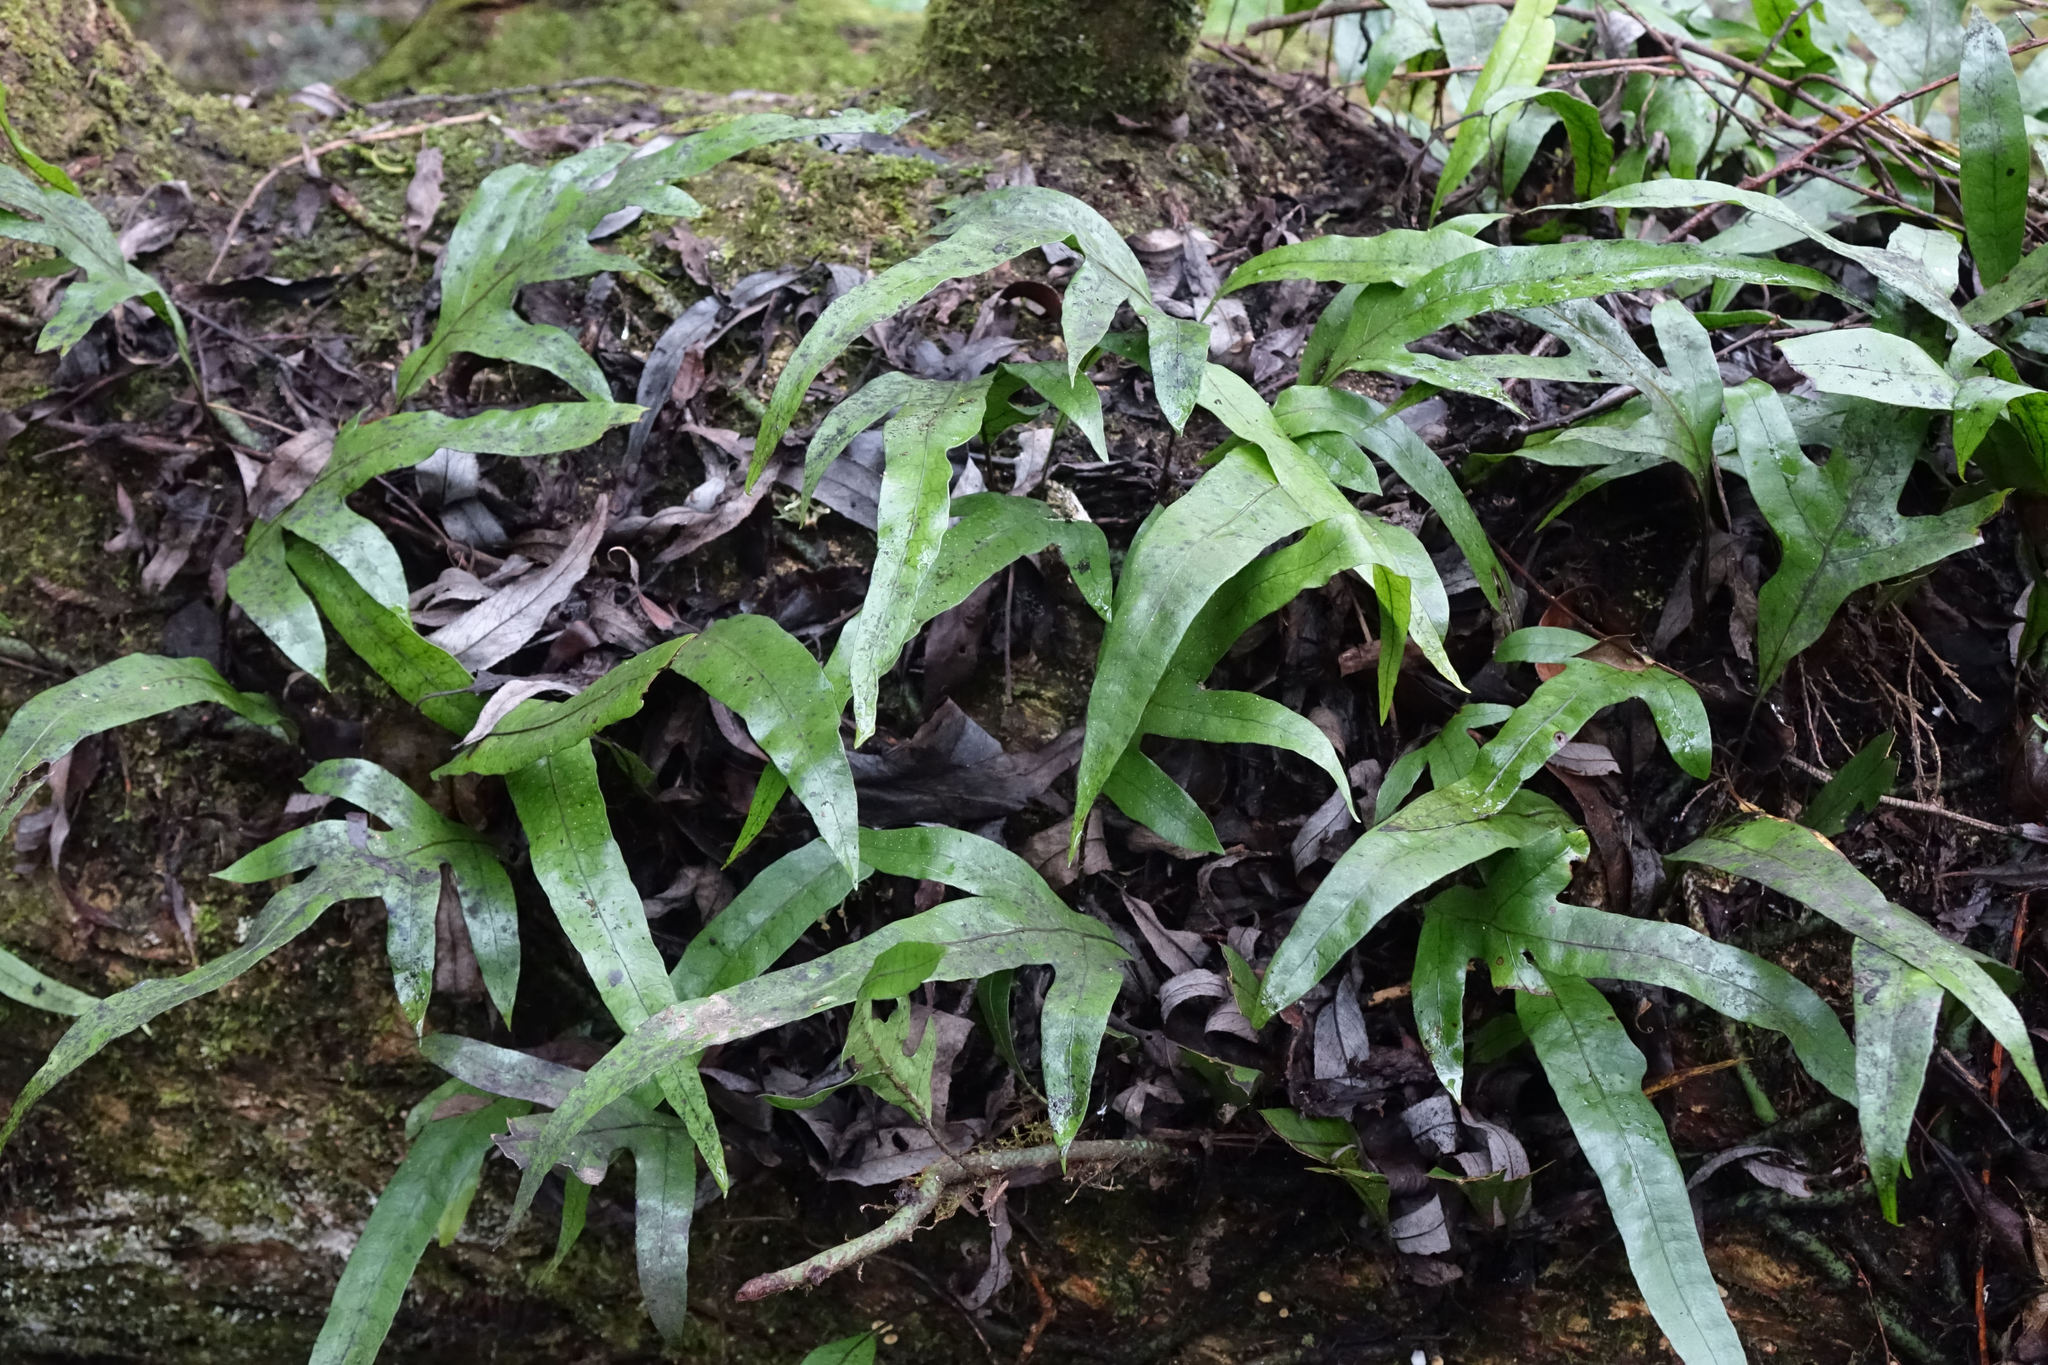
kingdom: Plantae
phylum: Tracheophyta
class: Polypodiopsida
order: Polypodiales
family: Polypodiaceae
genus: Lecanopteris
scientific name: Lecanopteris pustulata
